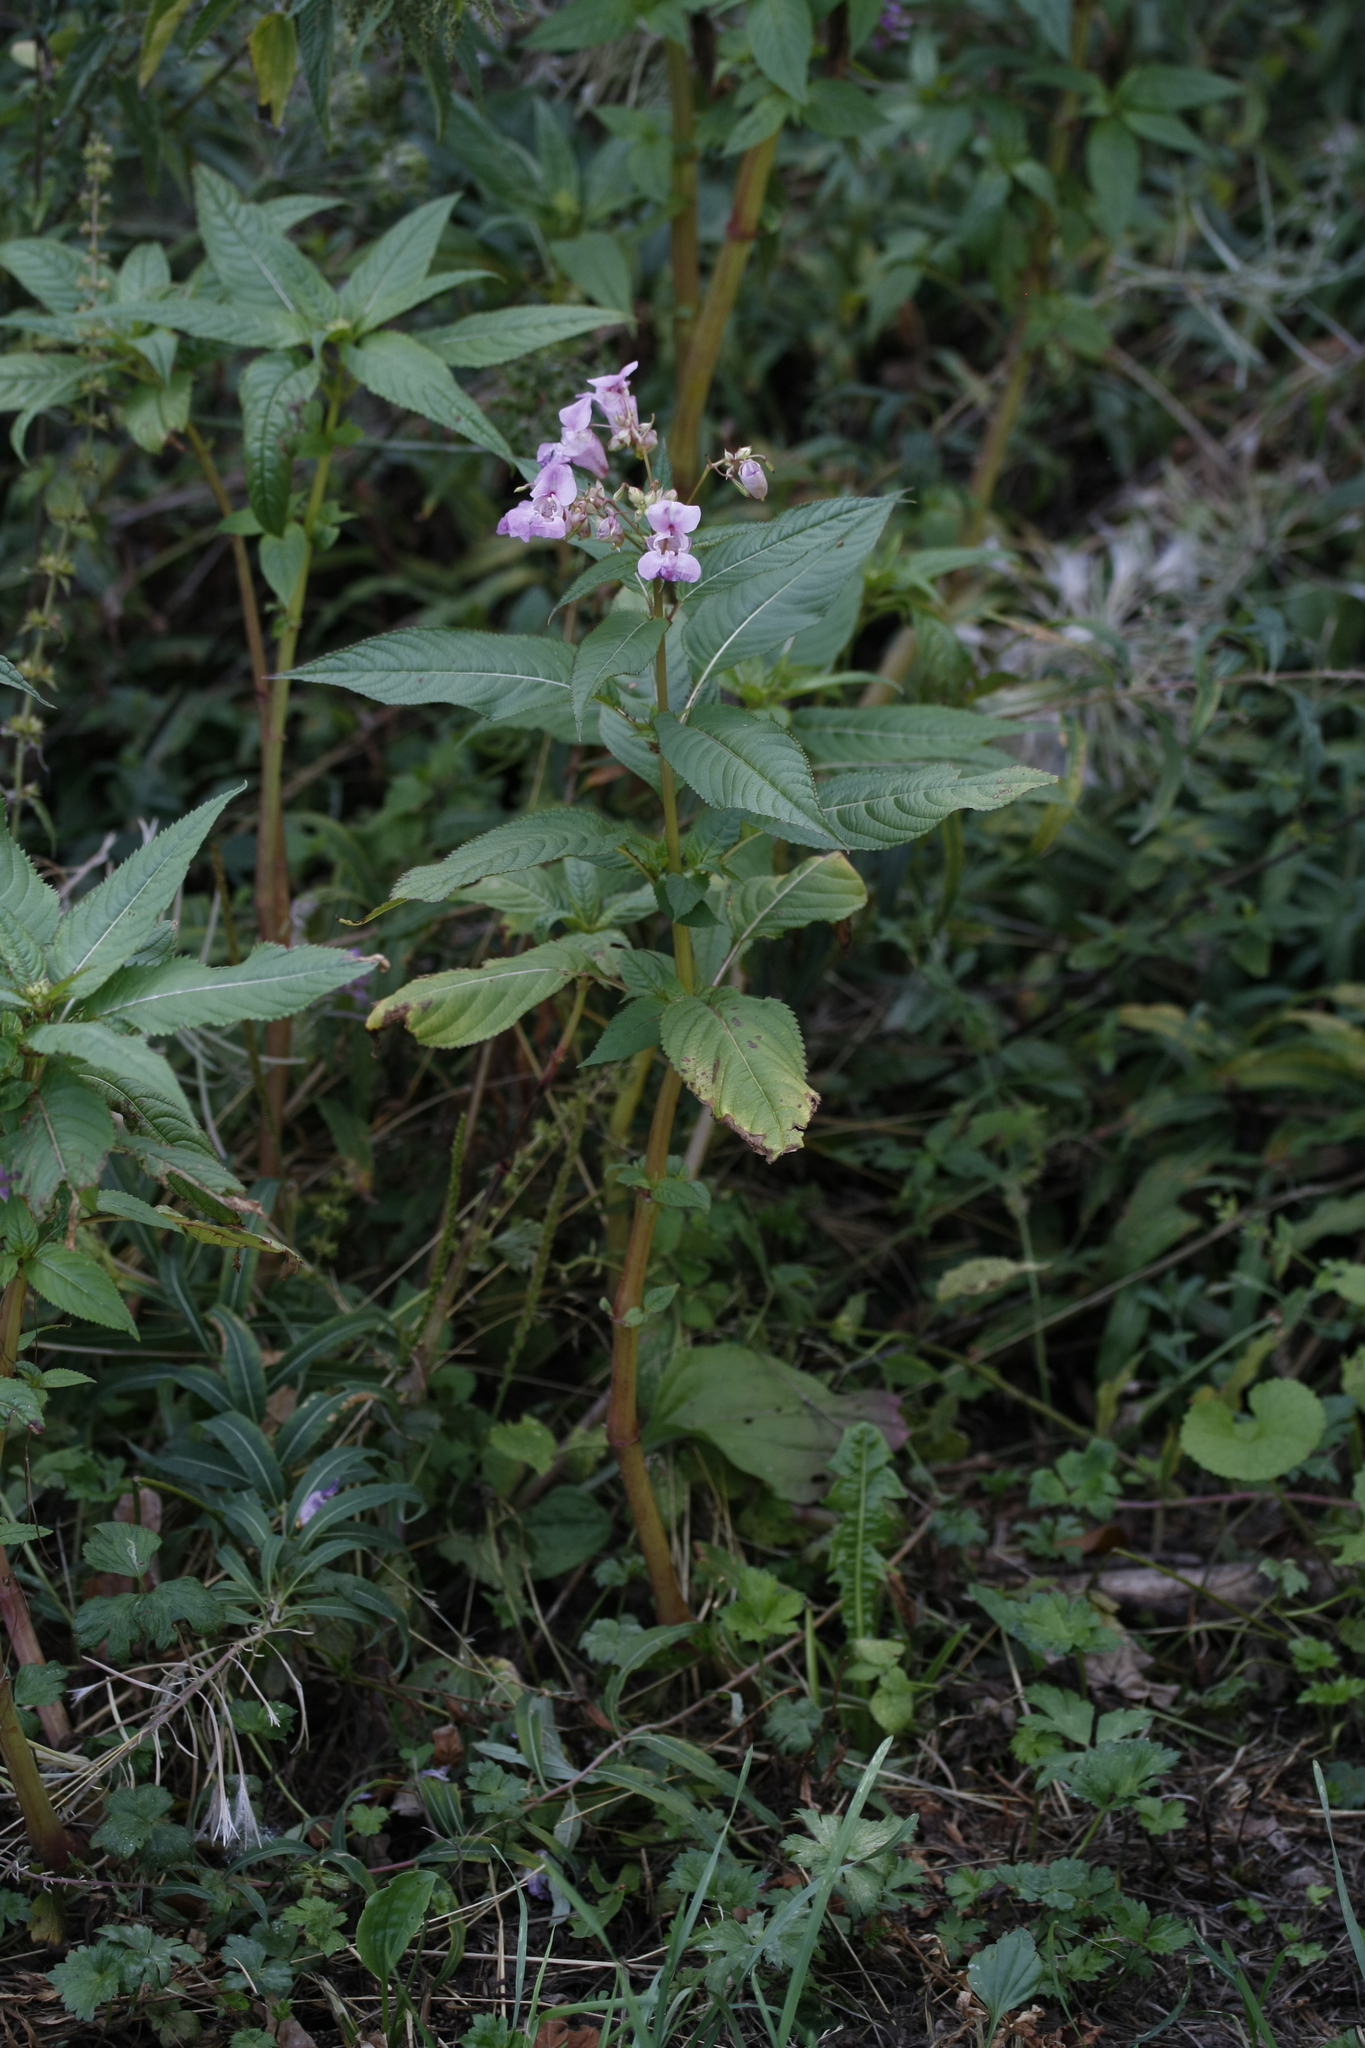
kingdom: Plantae
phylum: Tracheophyta
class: Magnoliopsida
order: Ericales
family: Balsaminaceae
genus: Impatiens
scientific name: Impatiens glandulifera
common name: Himalayan balsam
